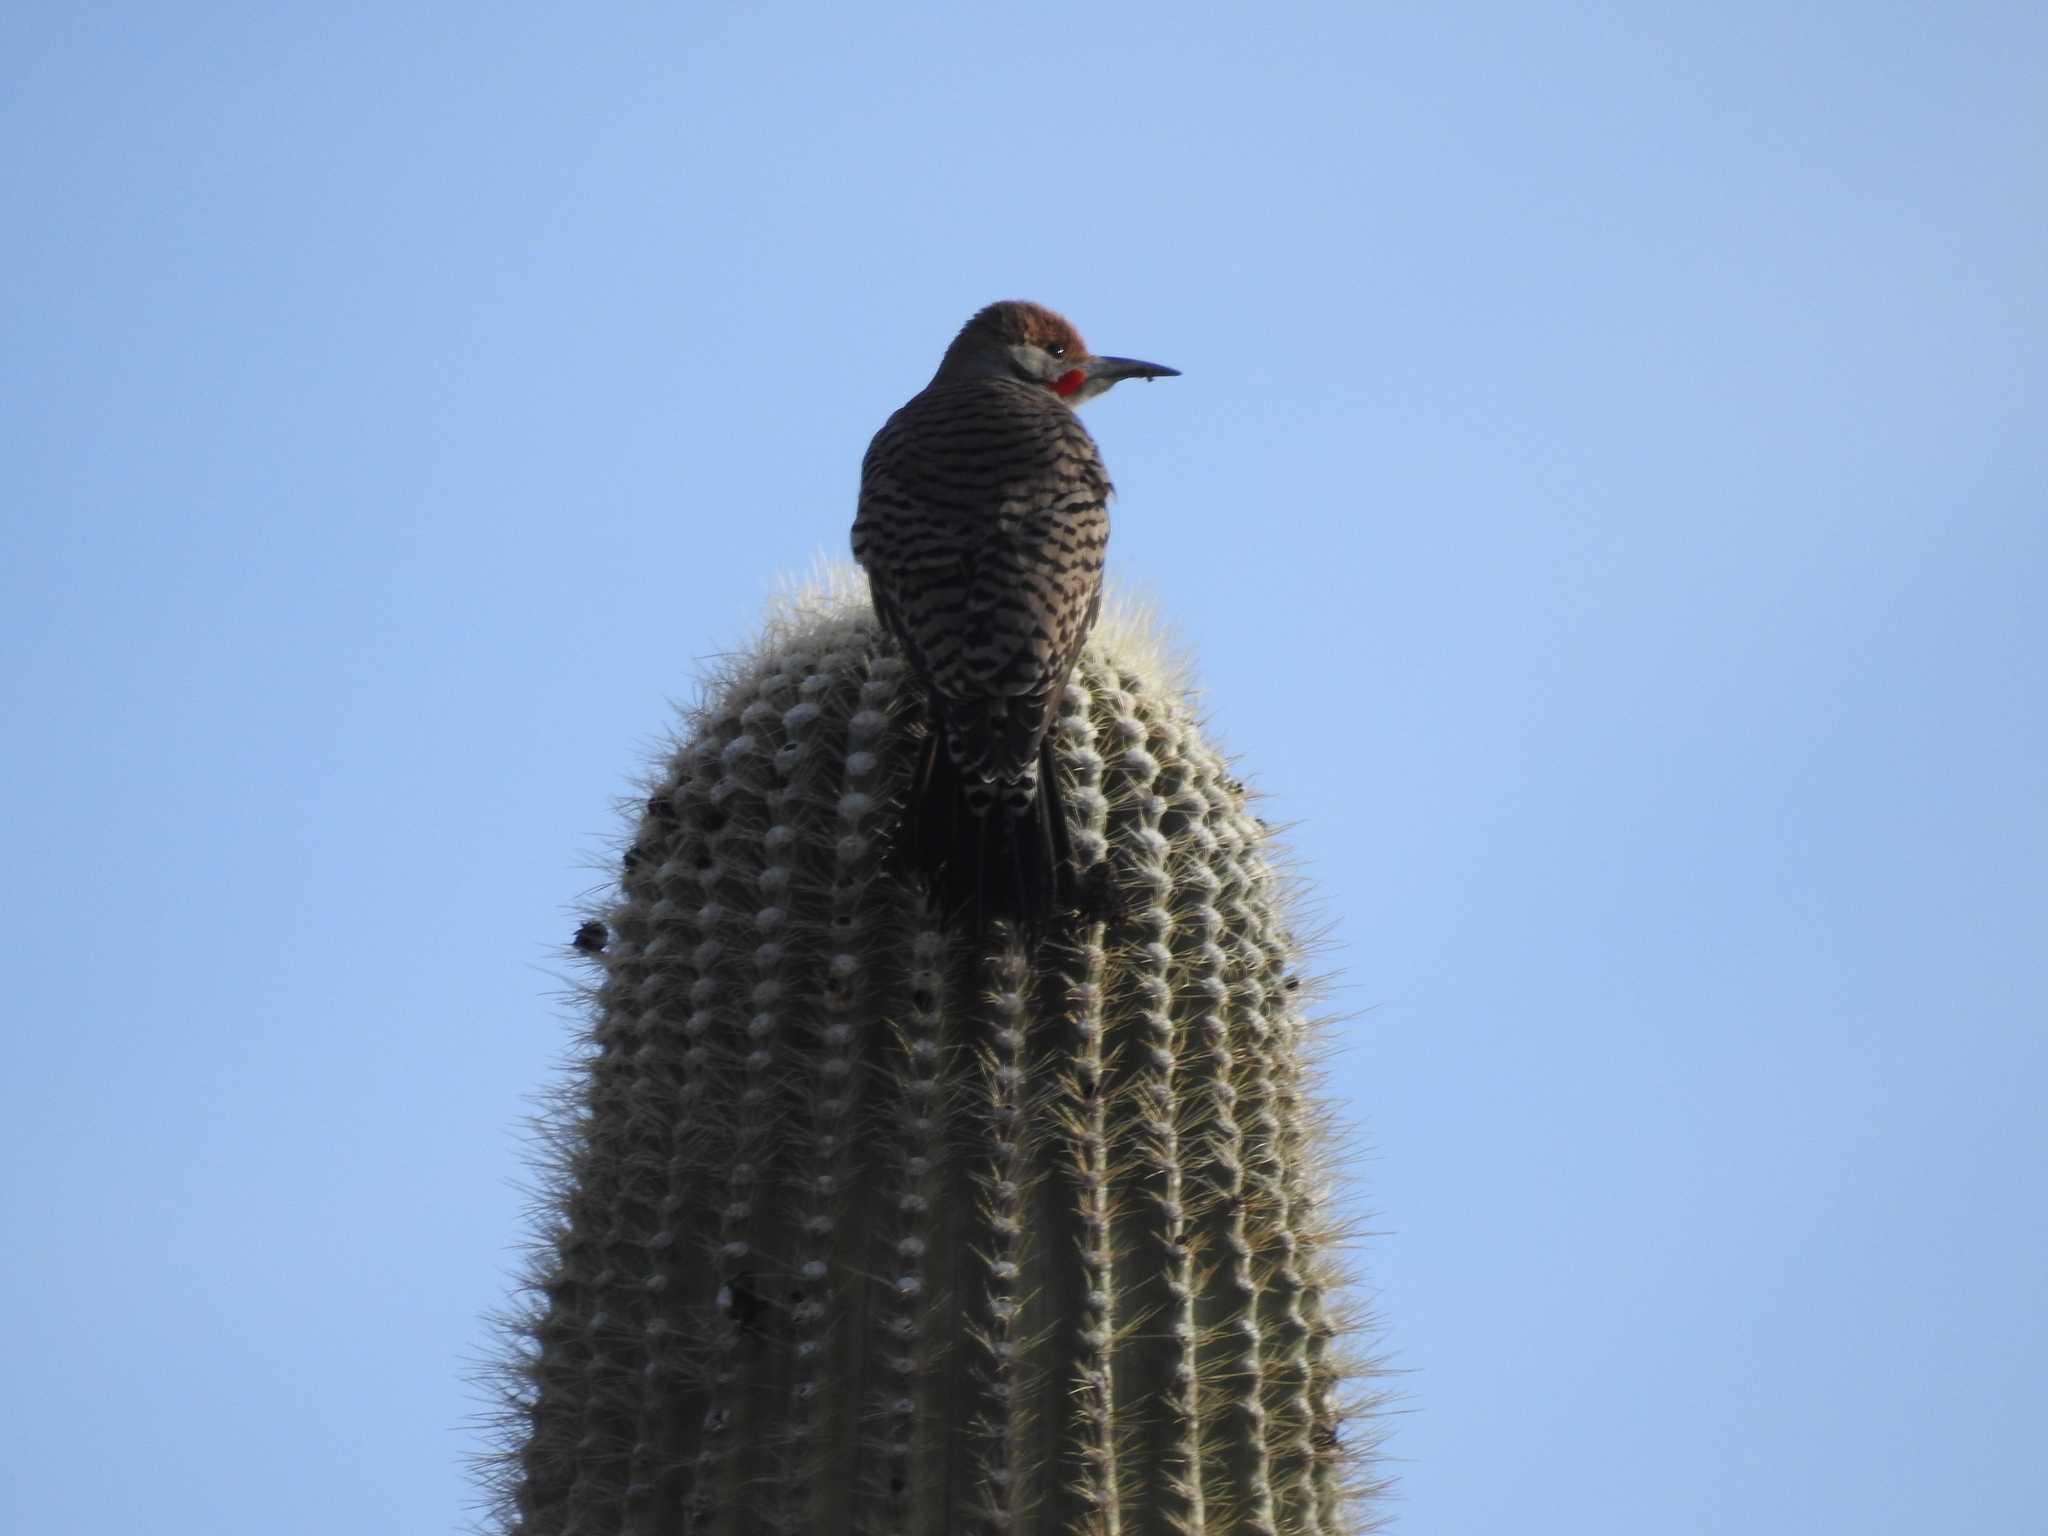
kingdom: Animalia
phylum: Chordata
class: Aves
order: Piciformes
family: Picidae
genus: Colaptes
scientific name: Colaptes chrysoides
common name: Gilded flicker
